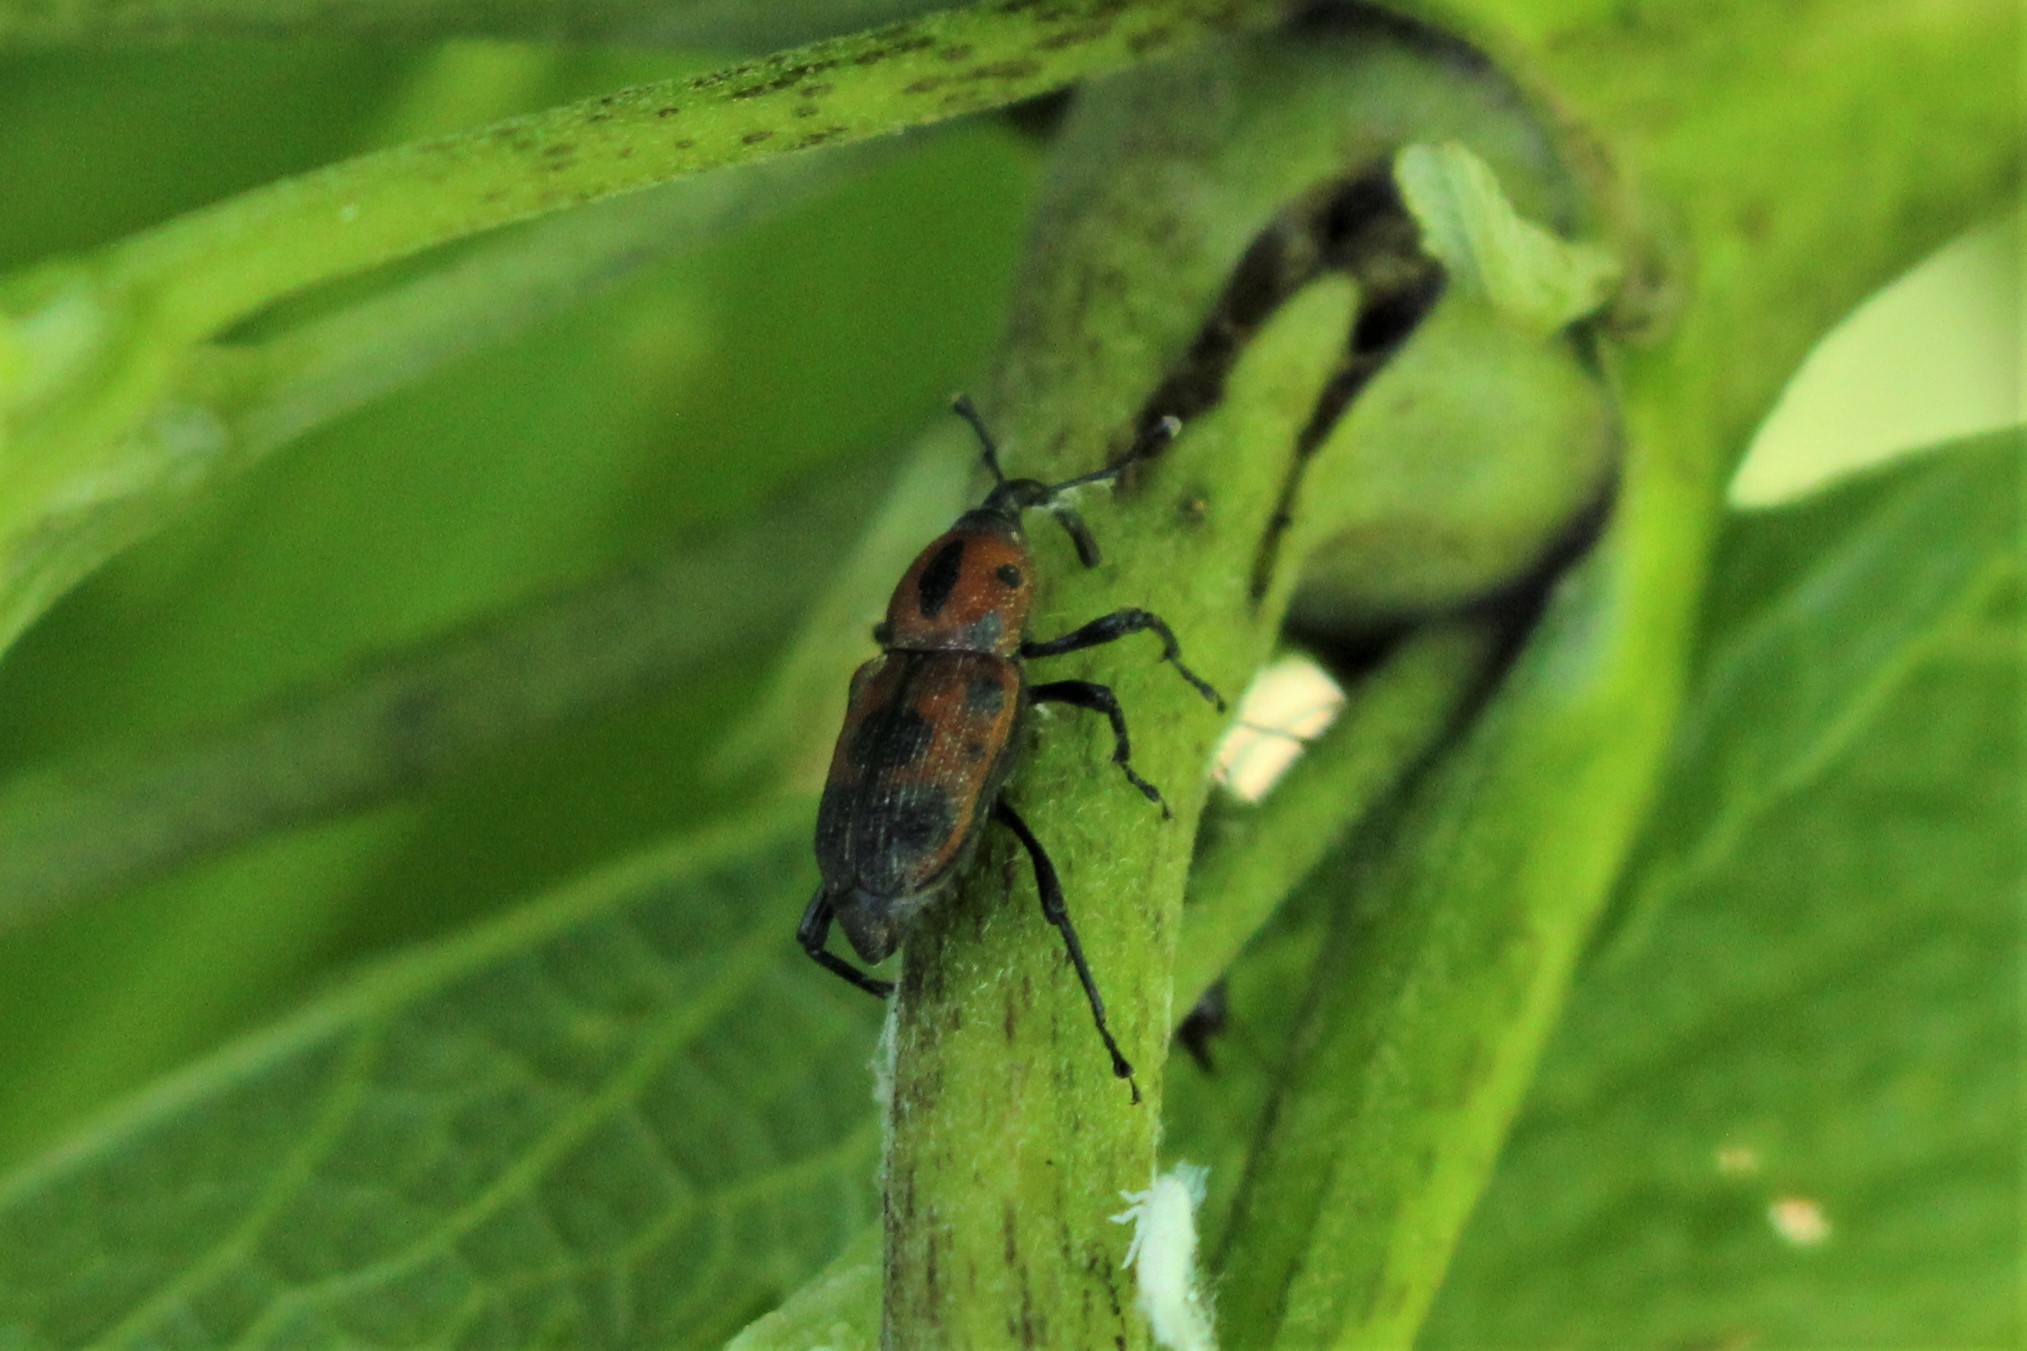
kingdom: Animalia
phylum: Arthropoda
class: Insecta
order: Coleoptera
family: Dryophthoridae
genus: Rhodobaenus
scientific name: Rhodobaenus quinquepunctatus
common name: Cocklebur weevil
